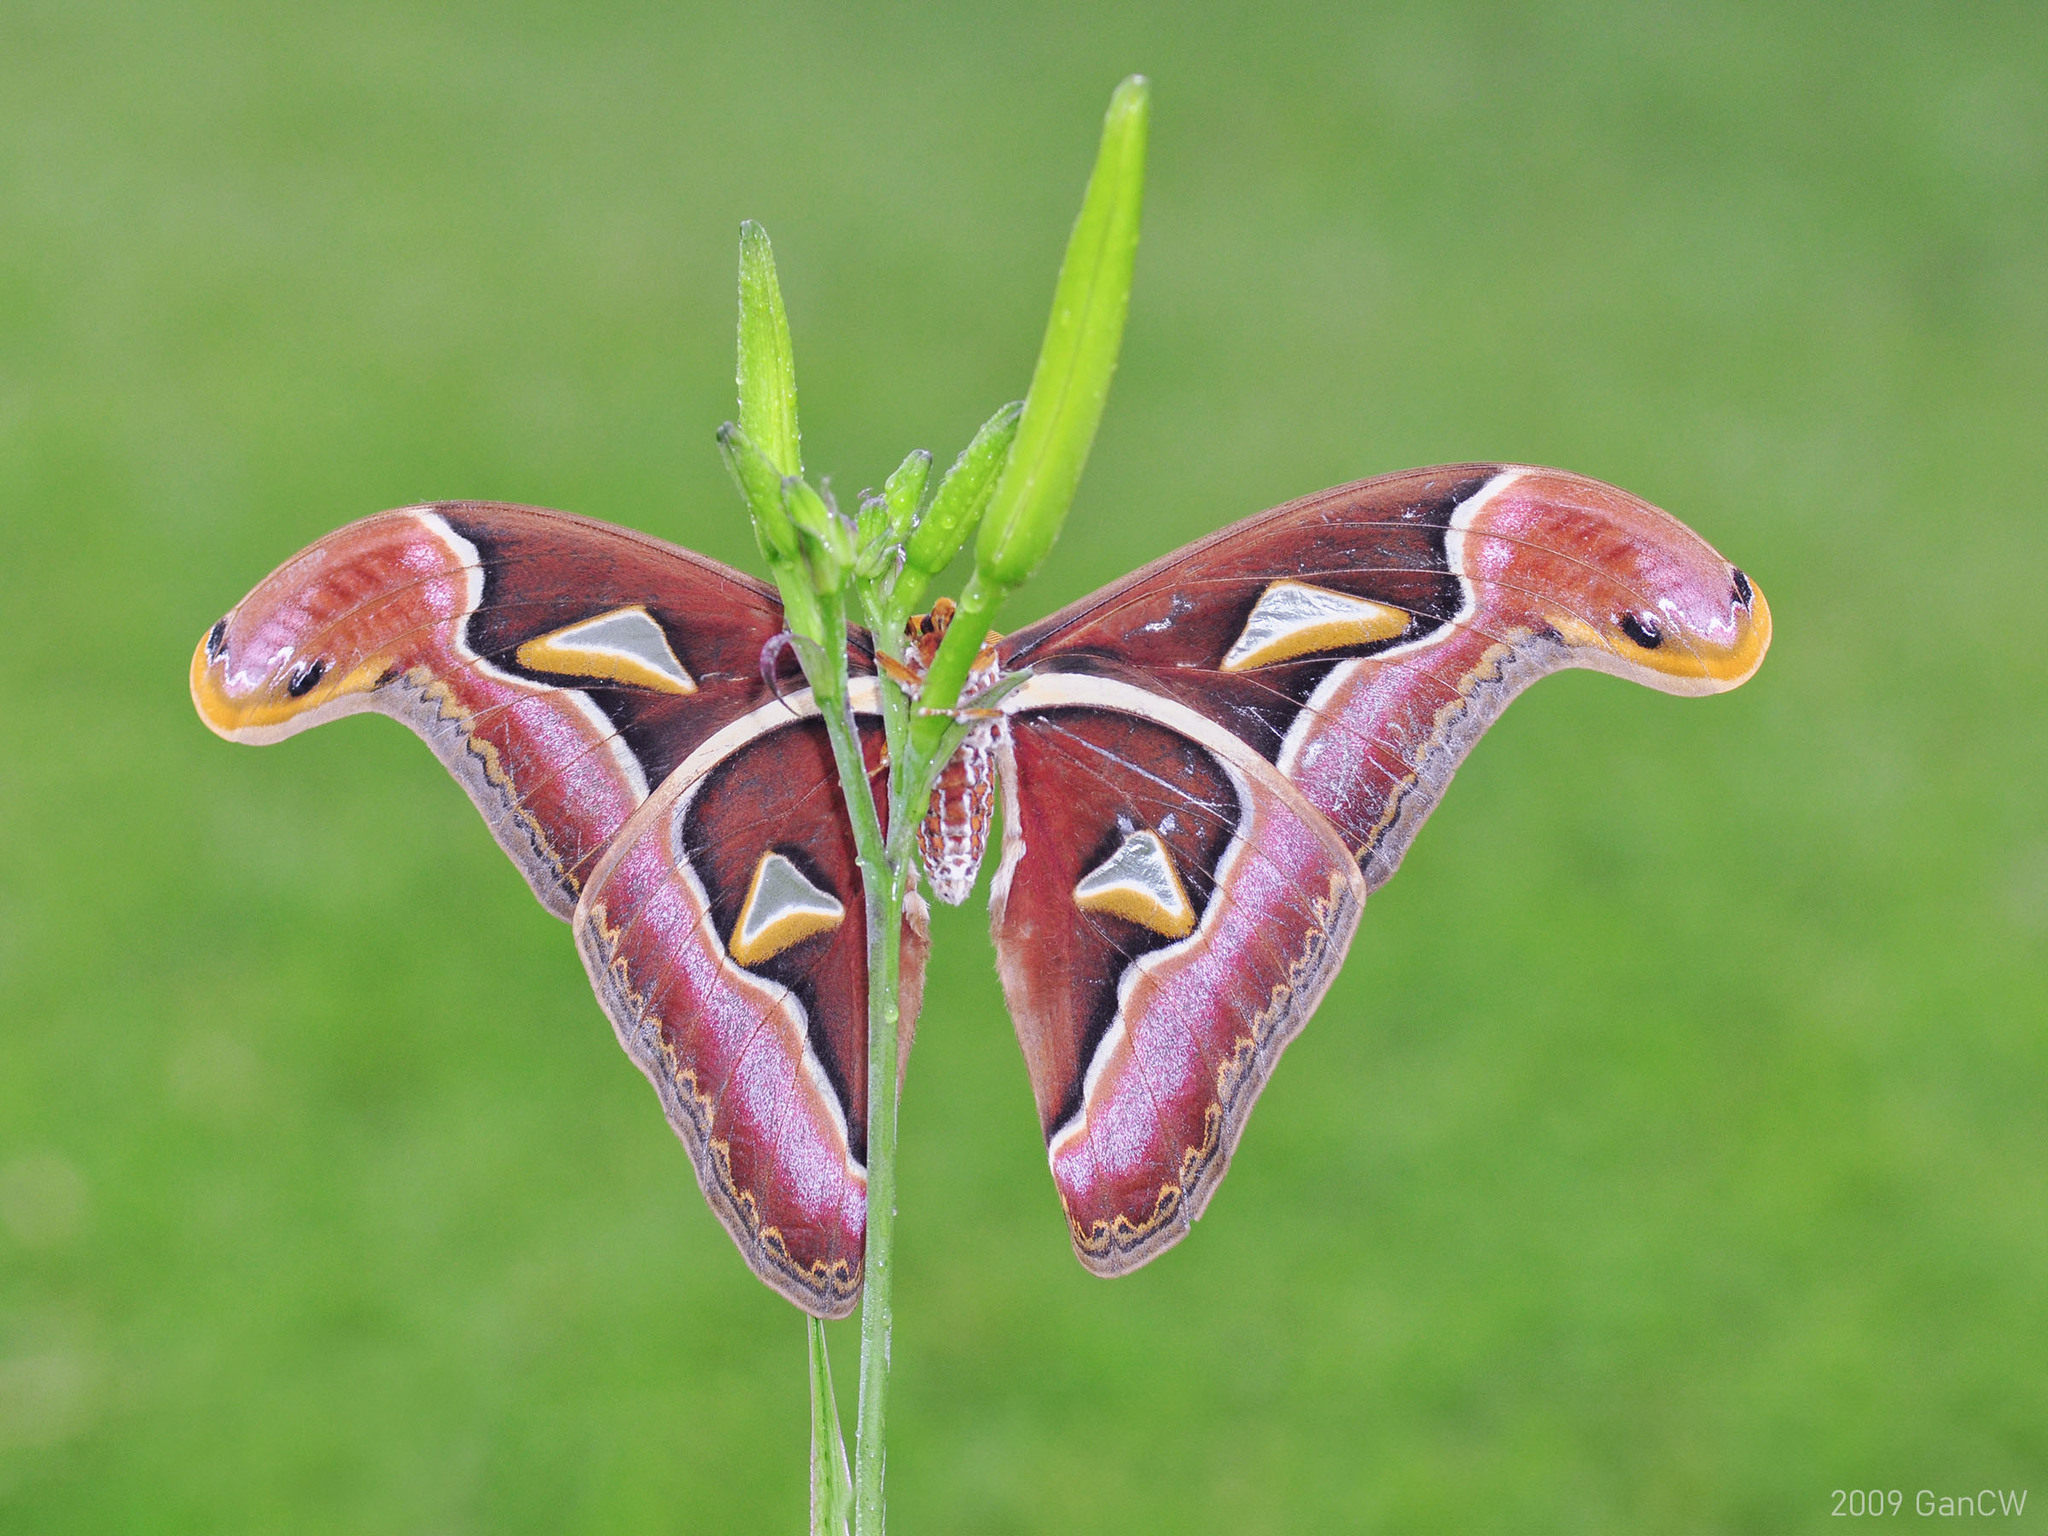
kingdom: Animalia
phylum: Arthropoda
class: Insecta
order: Lepidoptera
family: Saturniidae
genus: Archaeoattacus
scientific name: Archaeoattacus edwardsii
